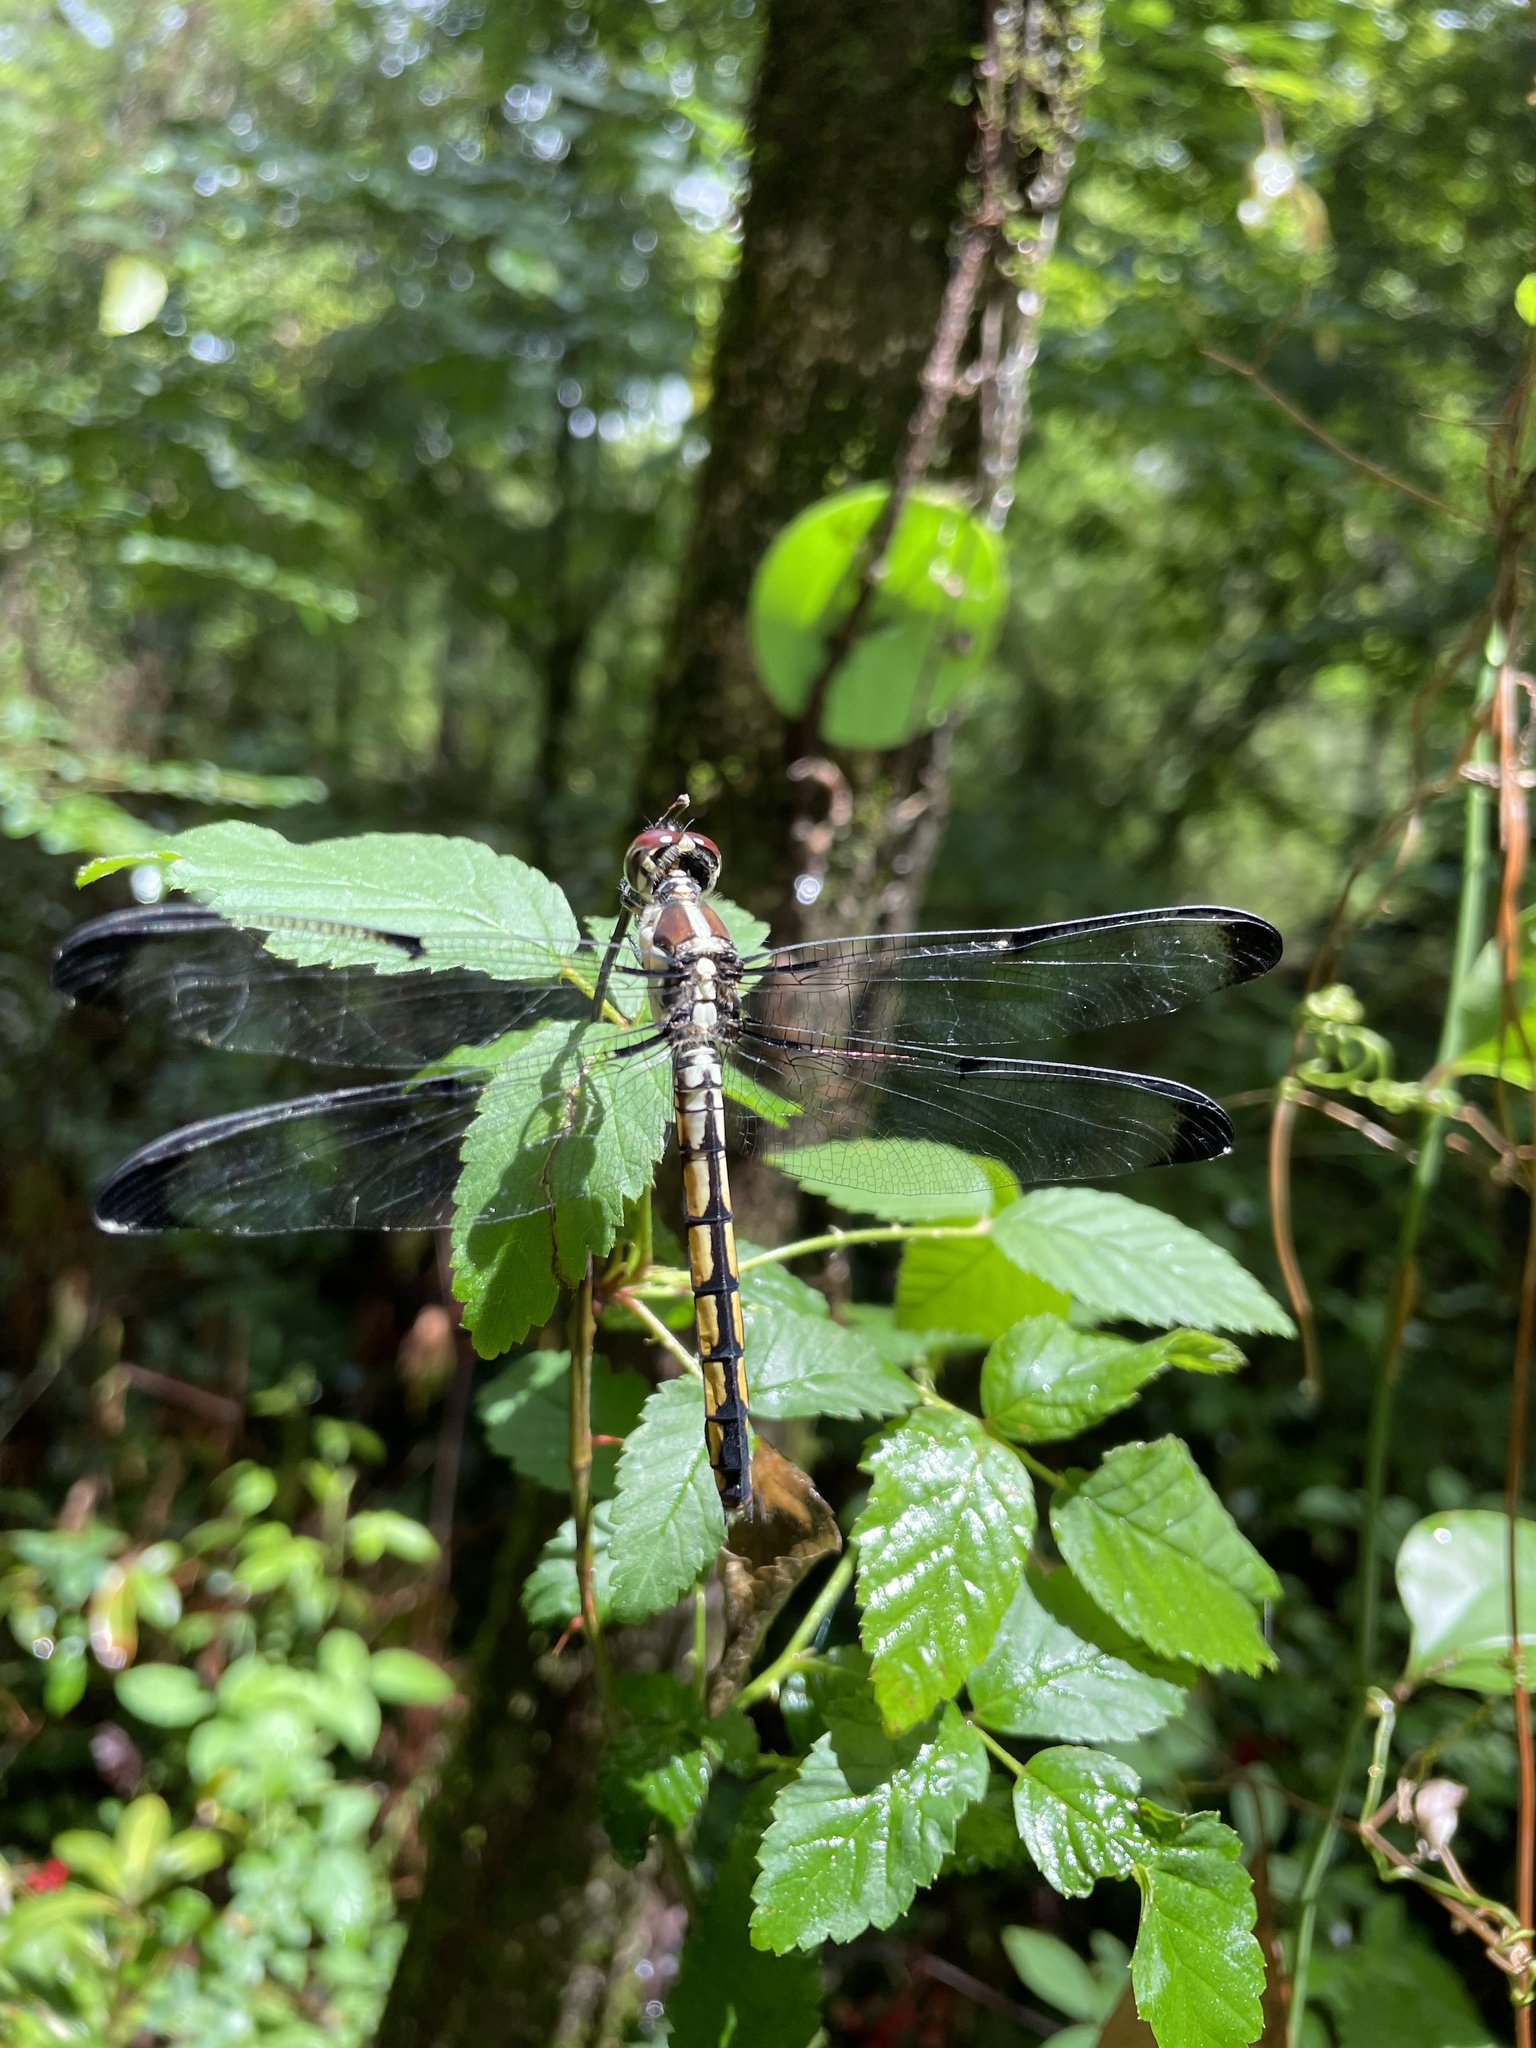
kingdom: Animalia
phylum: Arthropoda
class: Insecta
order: Odonata
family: Libellulidae
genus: Libellula
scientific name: Libellula vibrans
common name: Great blue skimmer
